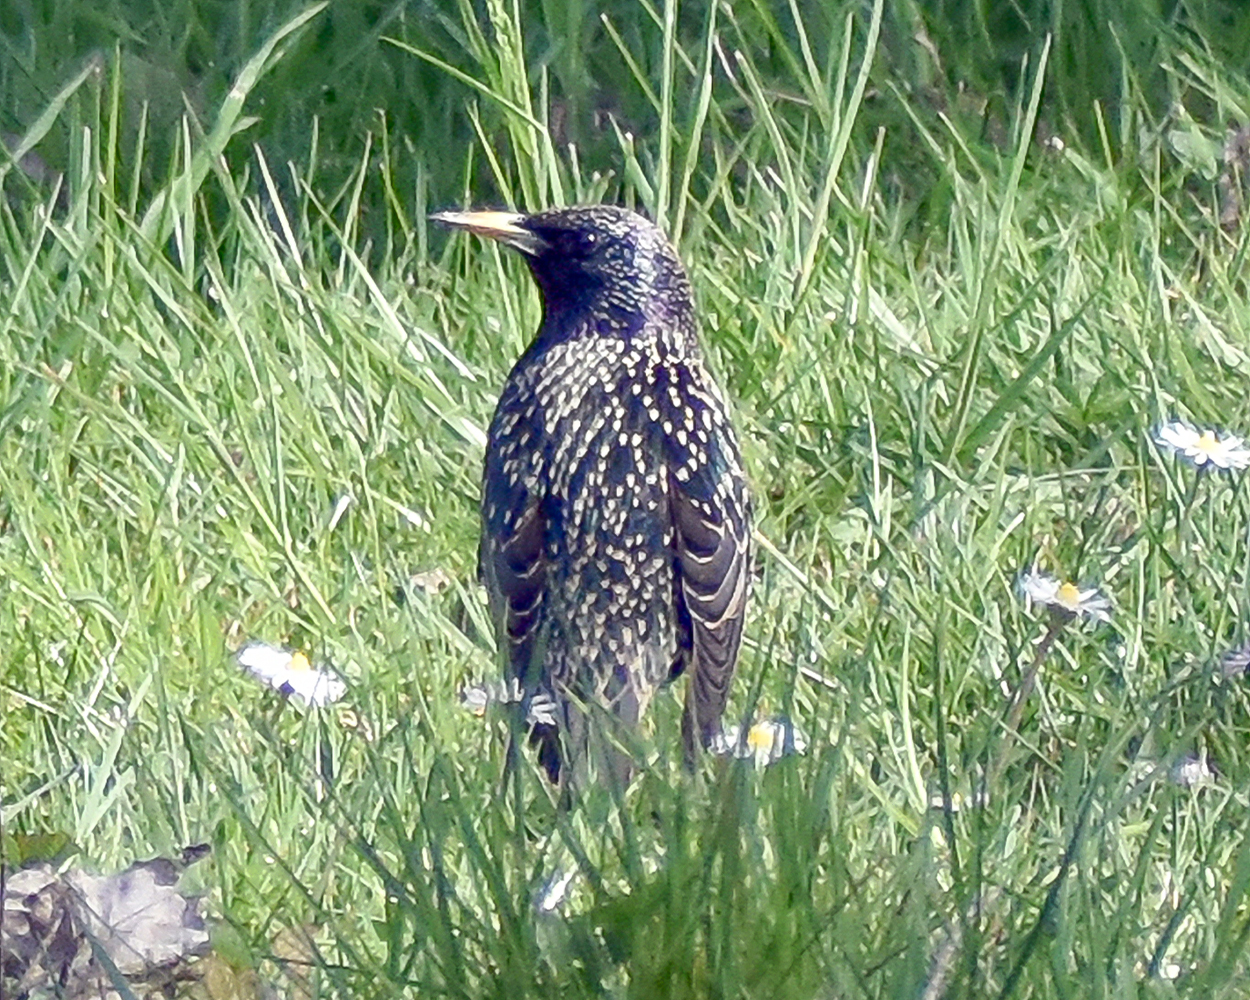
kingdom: Animalia
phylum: Chordata
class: Aves
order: Passeriformes
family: Sturnidae
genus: Sturnus
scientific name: Sturnus vulgaris
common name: Common starling
